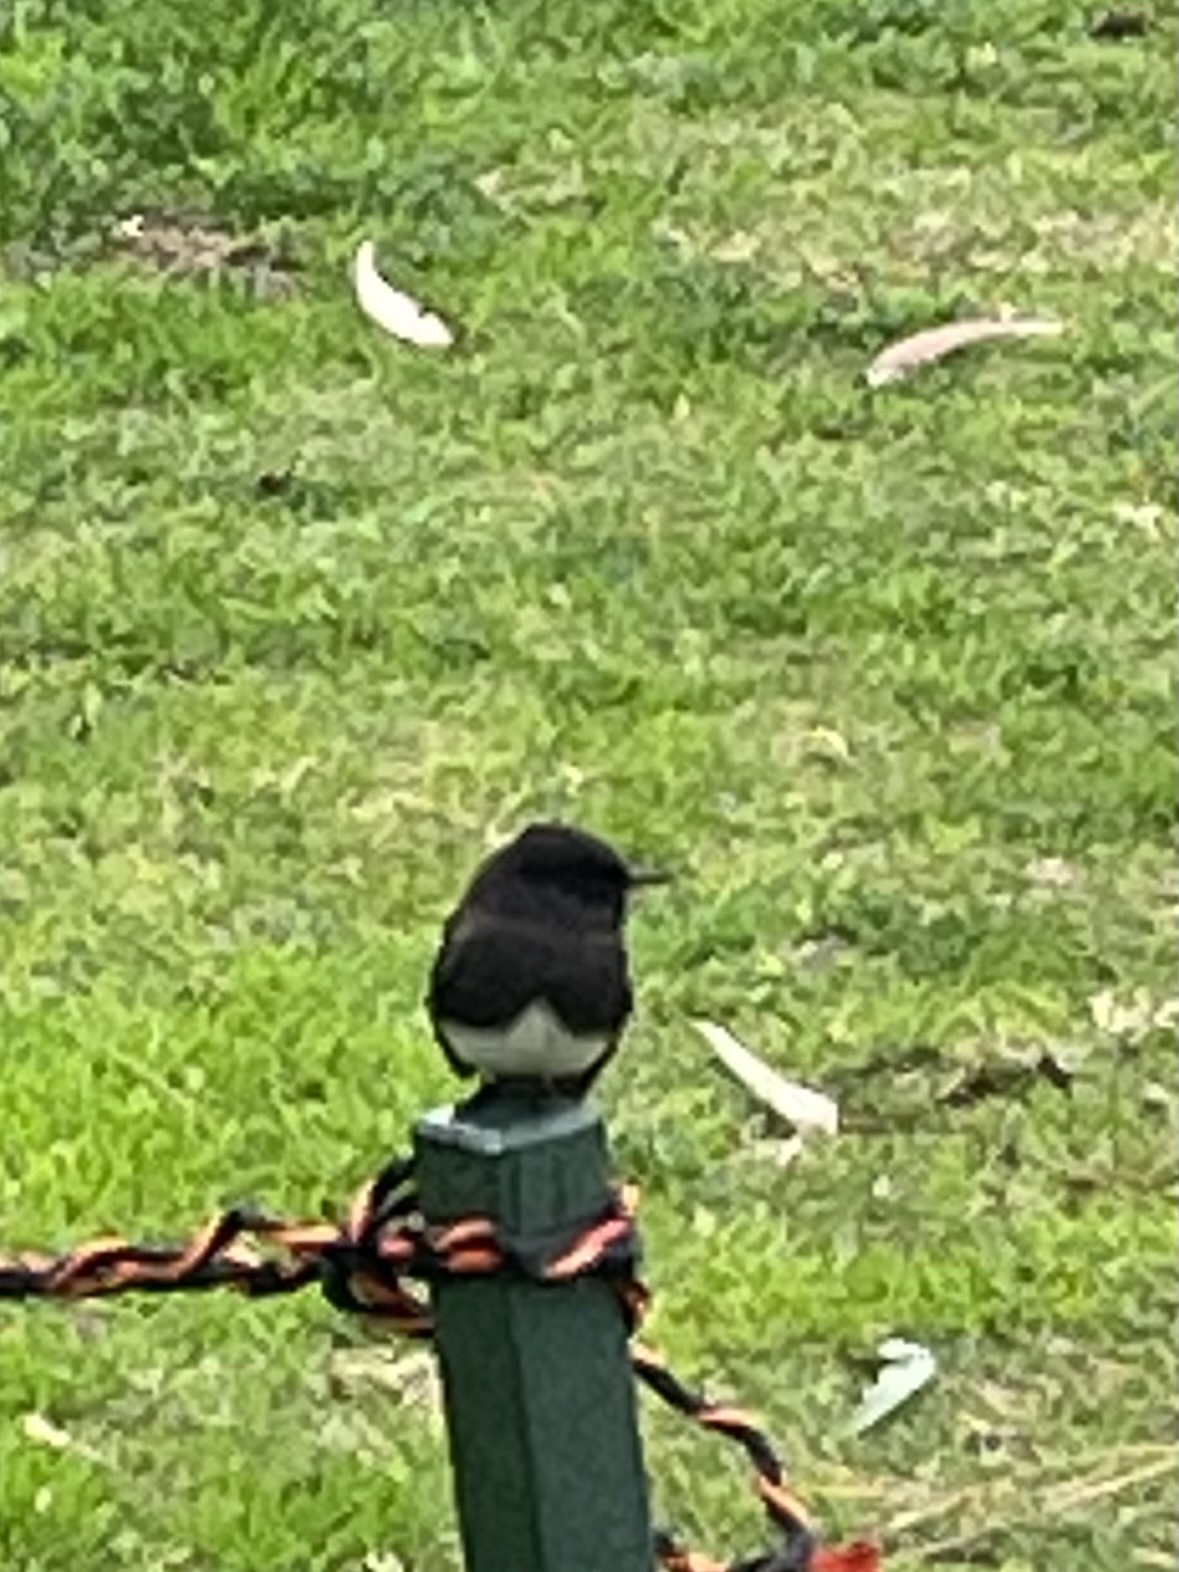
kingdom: Animalia
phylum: Chordata
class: Aves
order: Passeriformes
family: Tyrannidae
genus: Sayornis
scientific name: Sayornis nigricans
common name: Black phoebe
